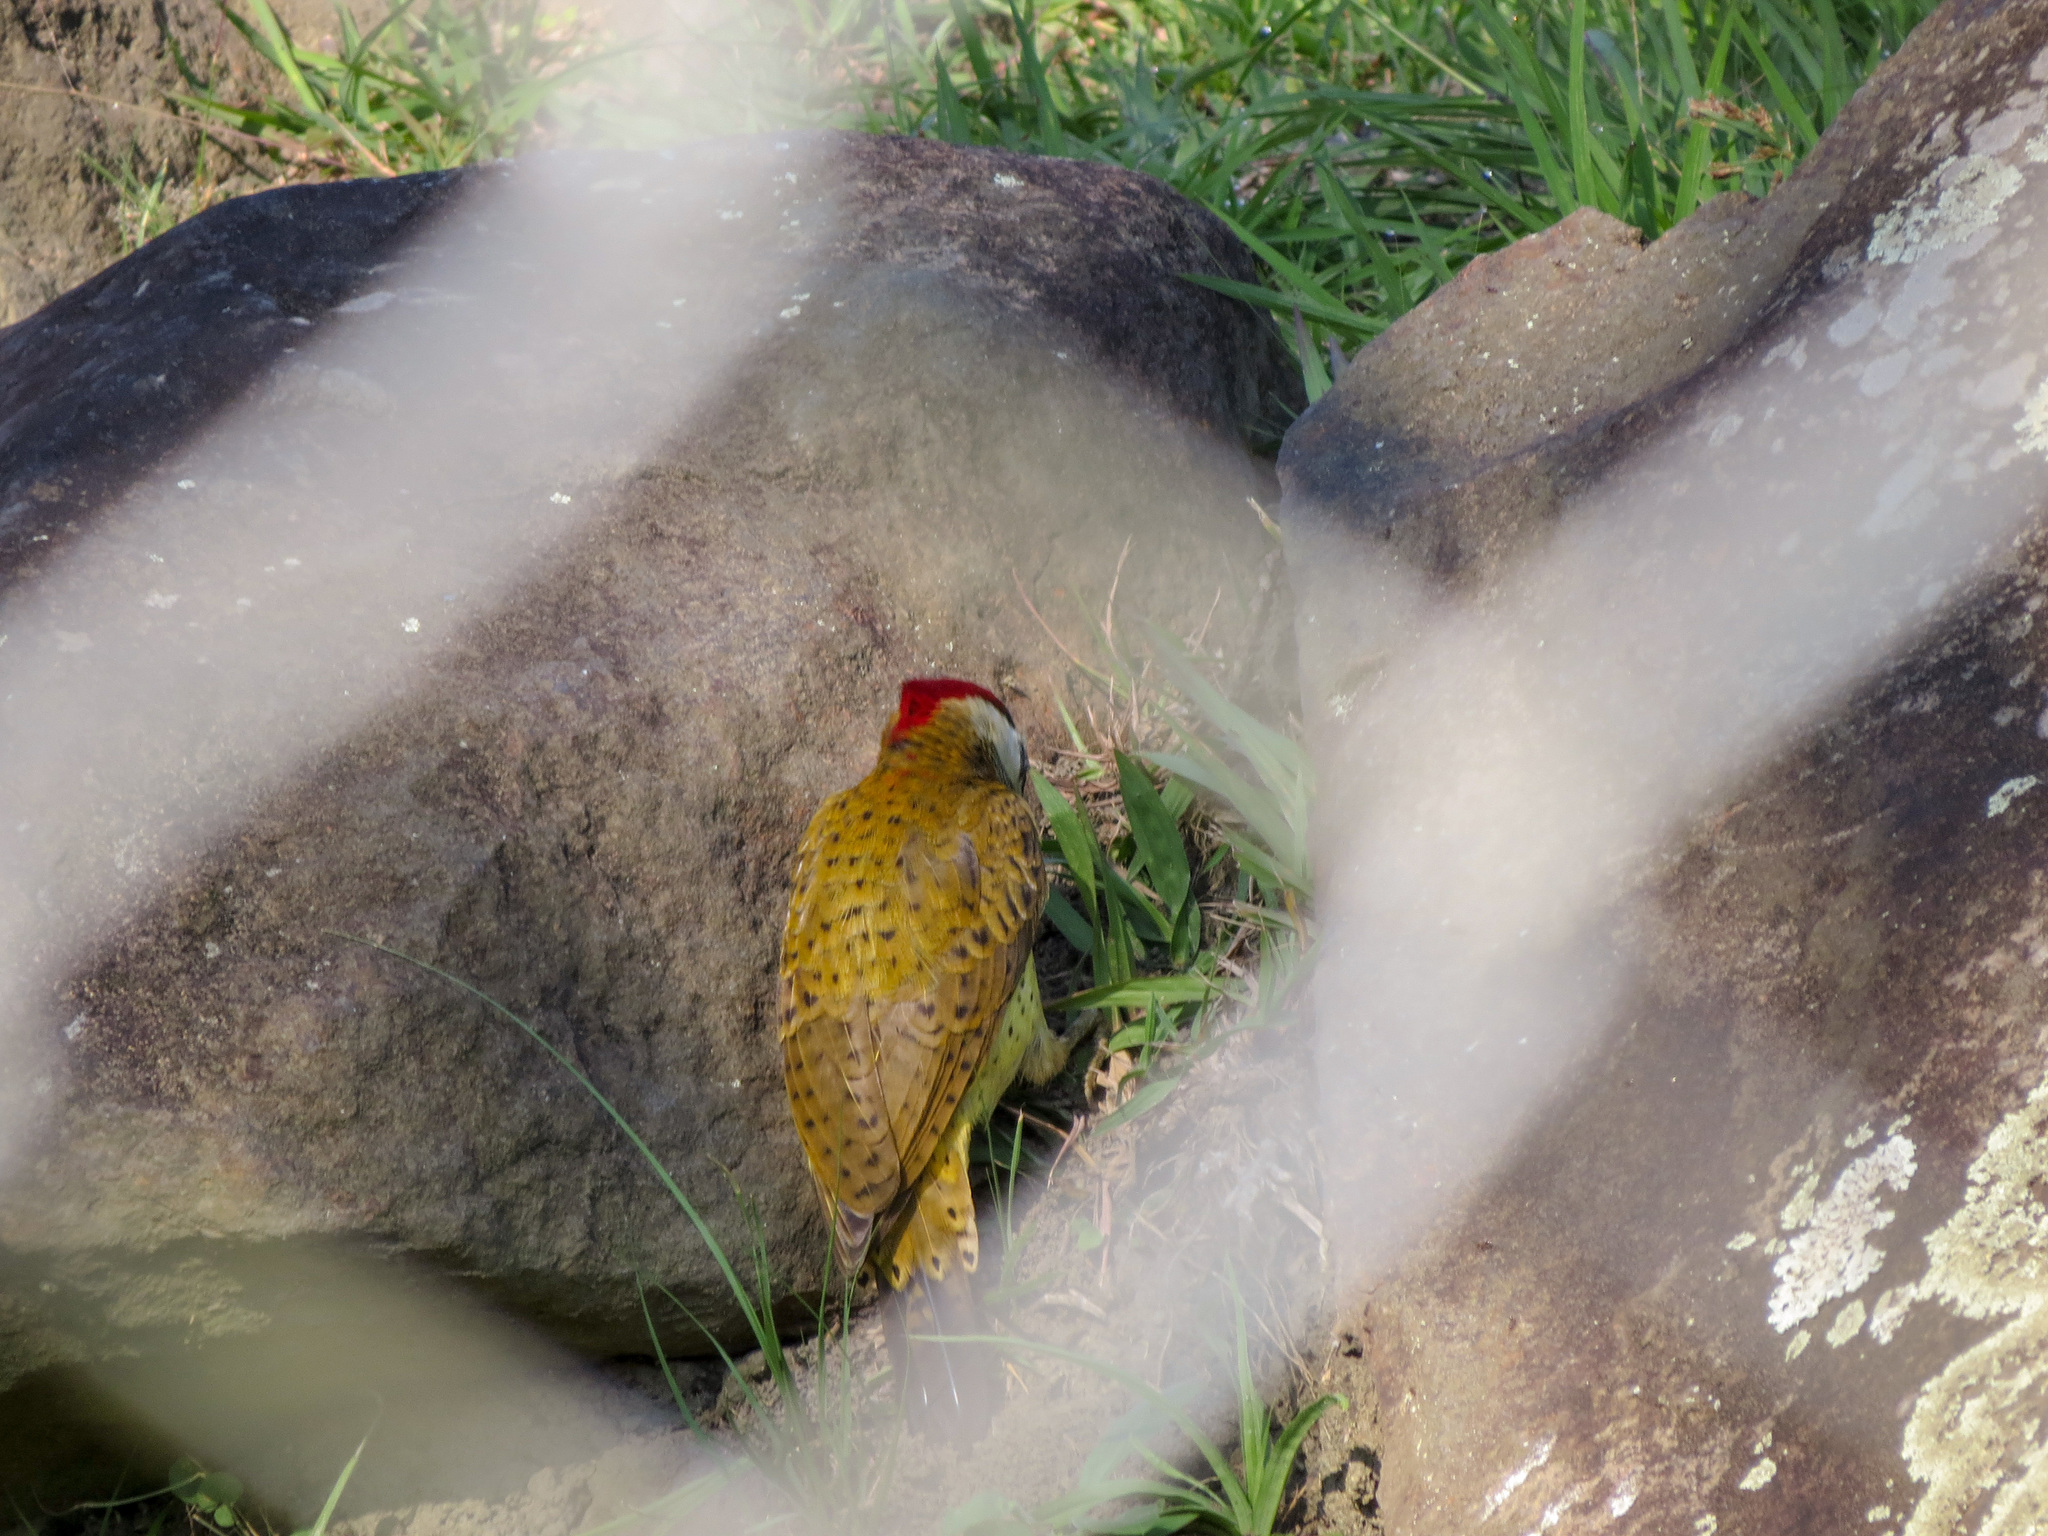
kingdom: Animalia
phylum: Chordata
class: Aves
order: Piciformes
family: Picidae
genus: Colaptes
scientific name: Colaptes punctigula
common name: Spot-breasted woodpecker
